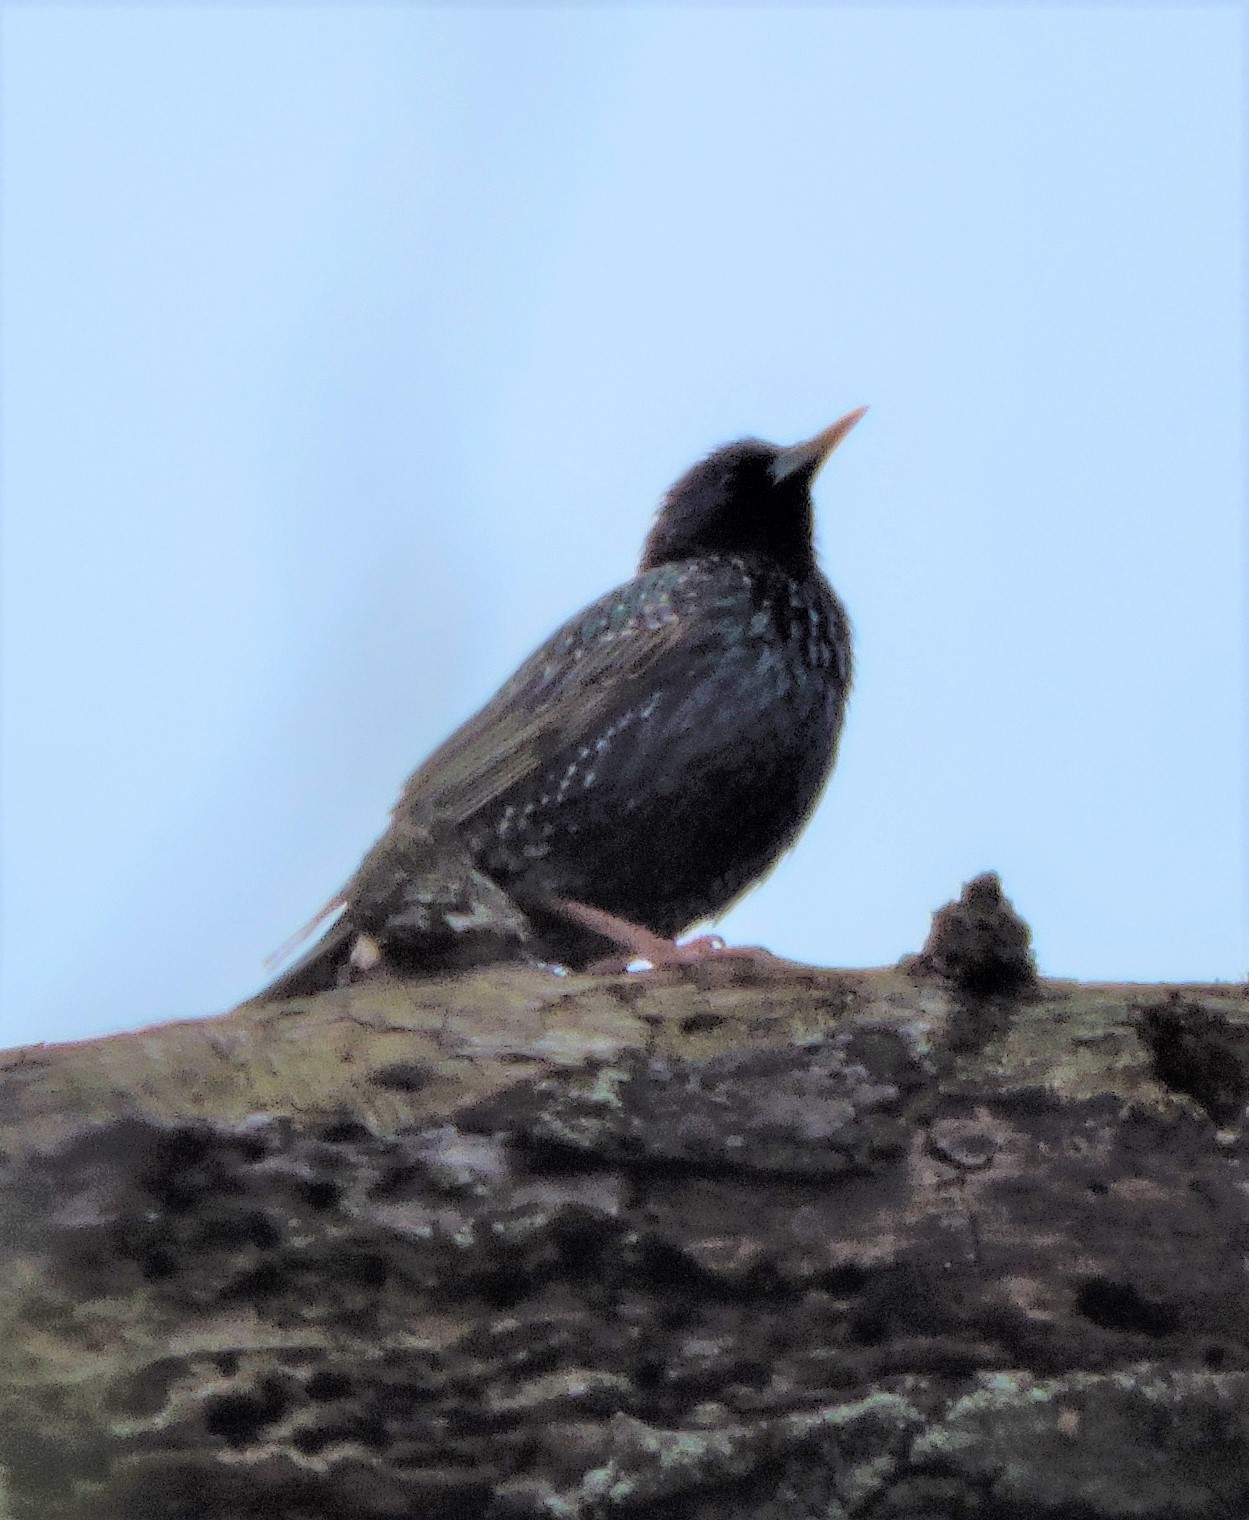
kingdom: Animalia
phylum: Chordata
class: Aves
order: Passeriformes
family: Sturnidae
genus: Sturnus
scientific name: Sturnus vulgaris
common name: Common starling
